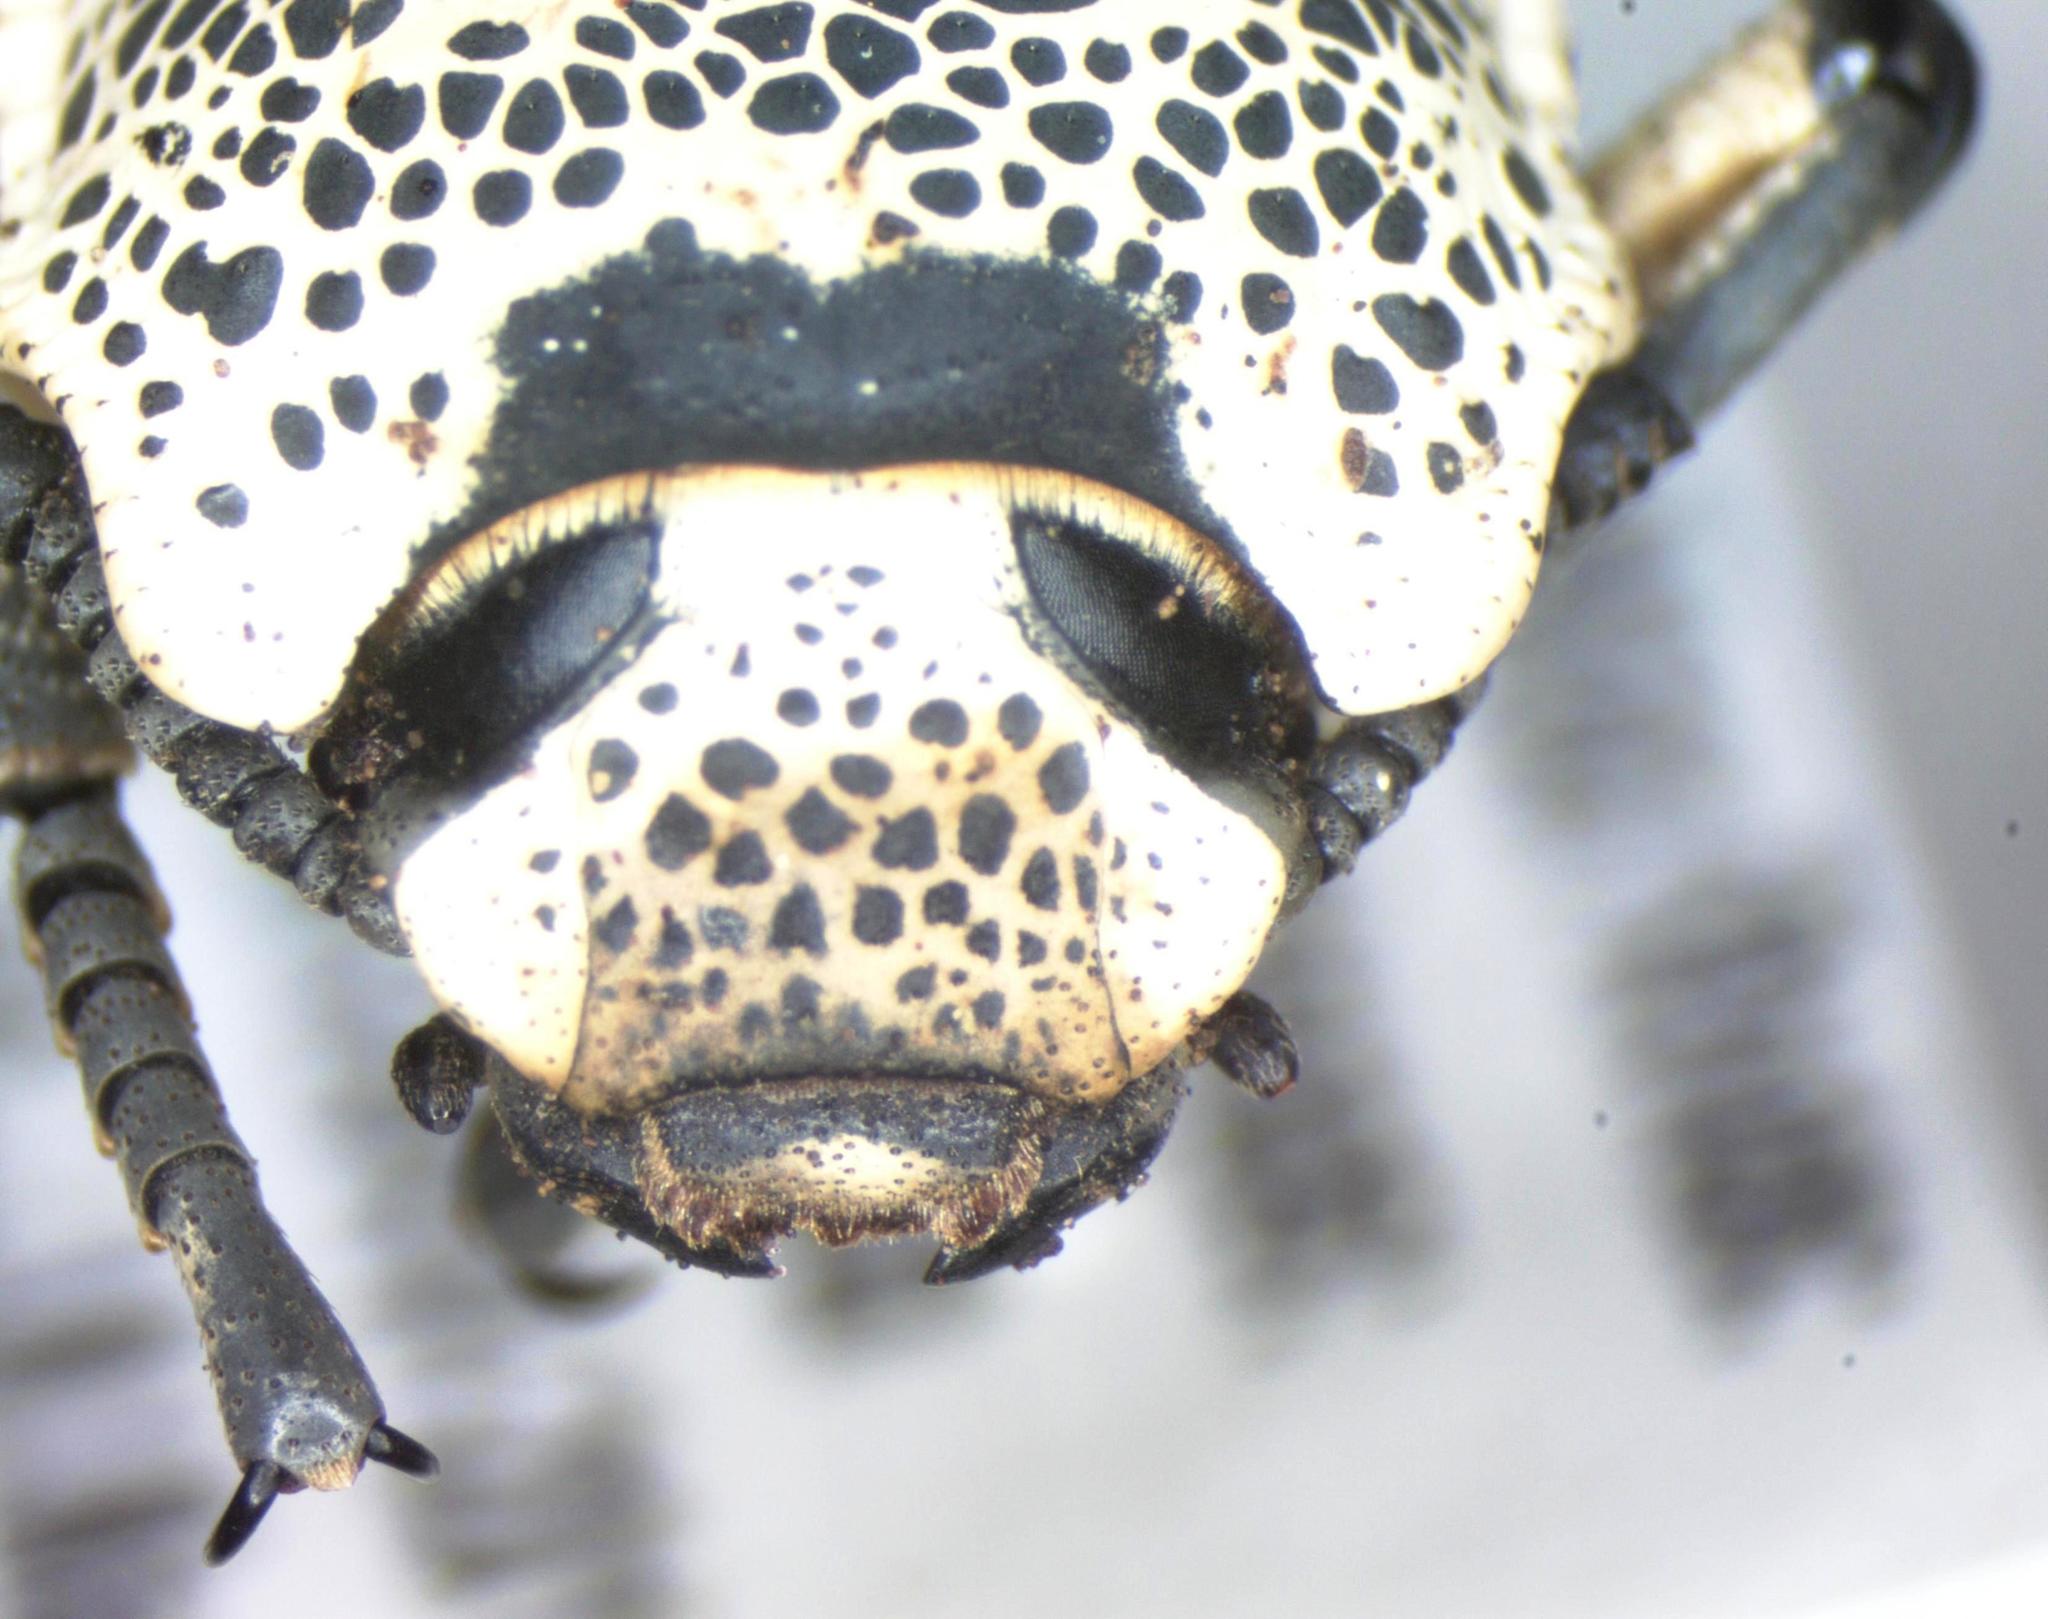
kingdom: Animalia
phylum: Arthropoda
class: Insecta
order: Coleoptera
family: Zopheridae
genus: Zopherus
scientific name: Zopherus
